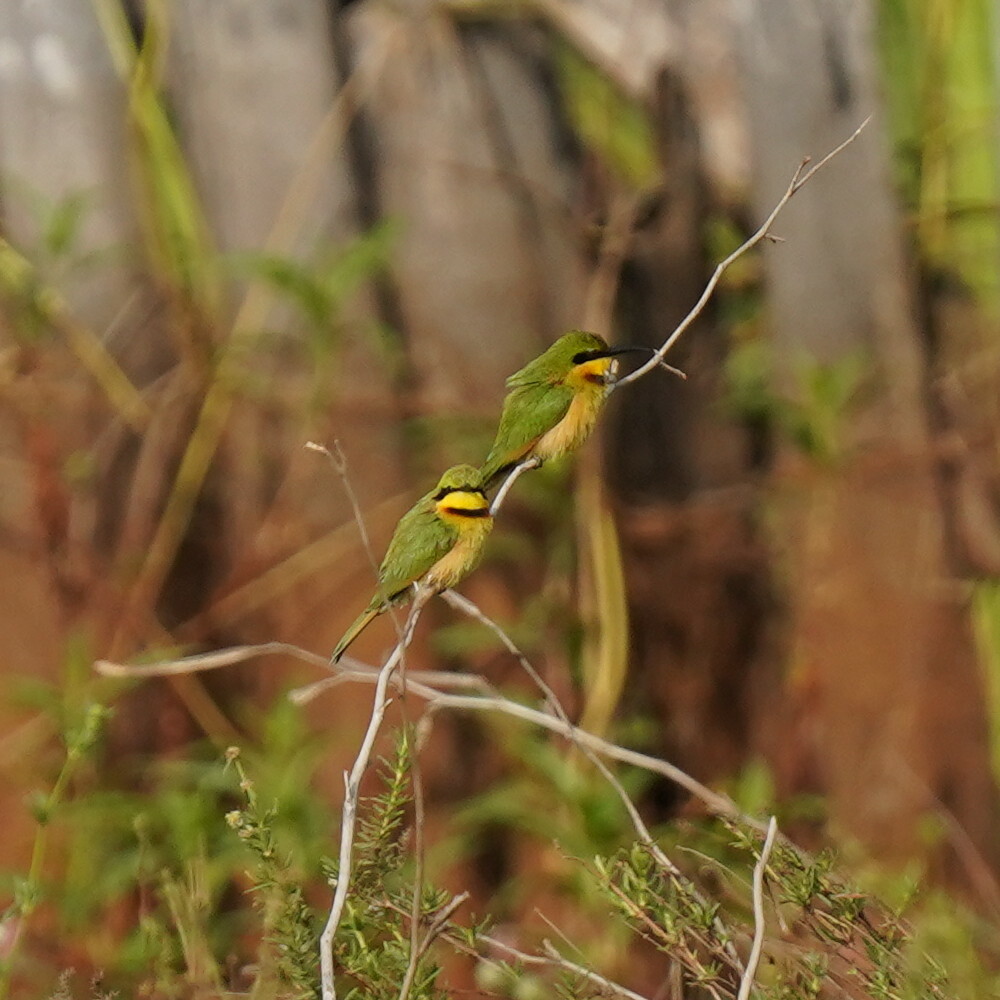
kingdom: Animalia
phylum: Chordata
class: Aves
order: Coraciiformes
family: Meropidae
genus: Merops
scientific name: Merops pusillus
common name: Little bee-eater
